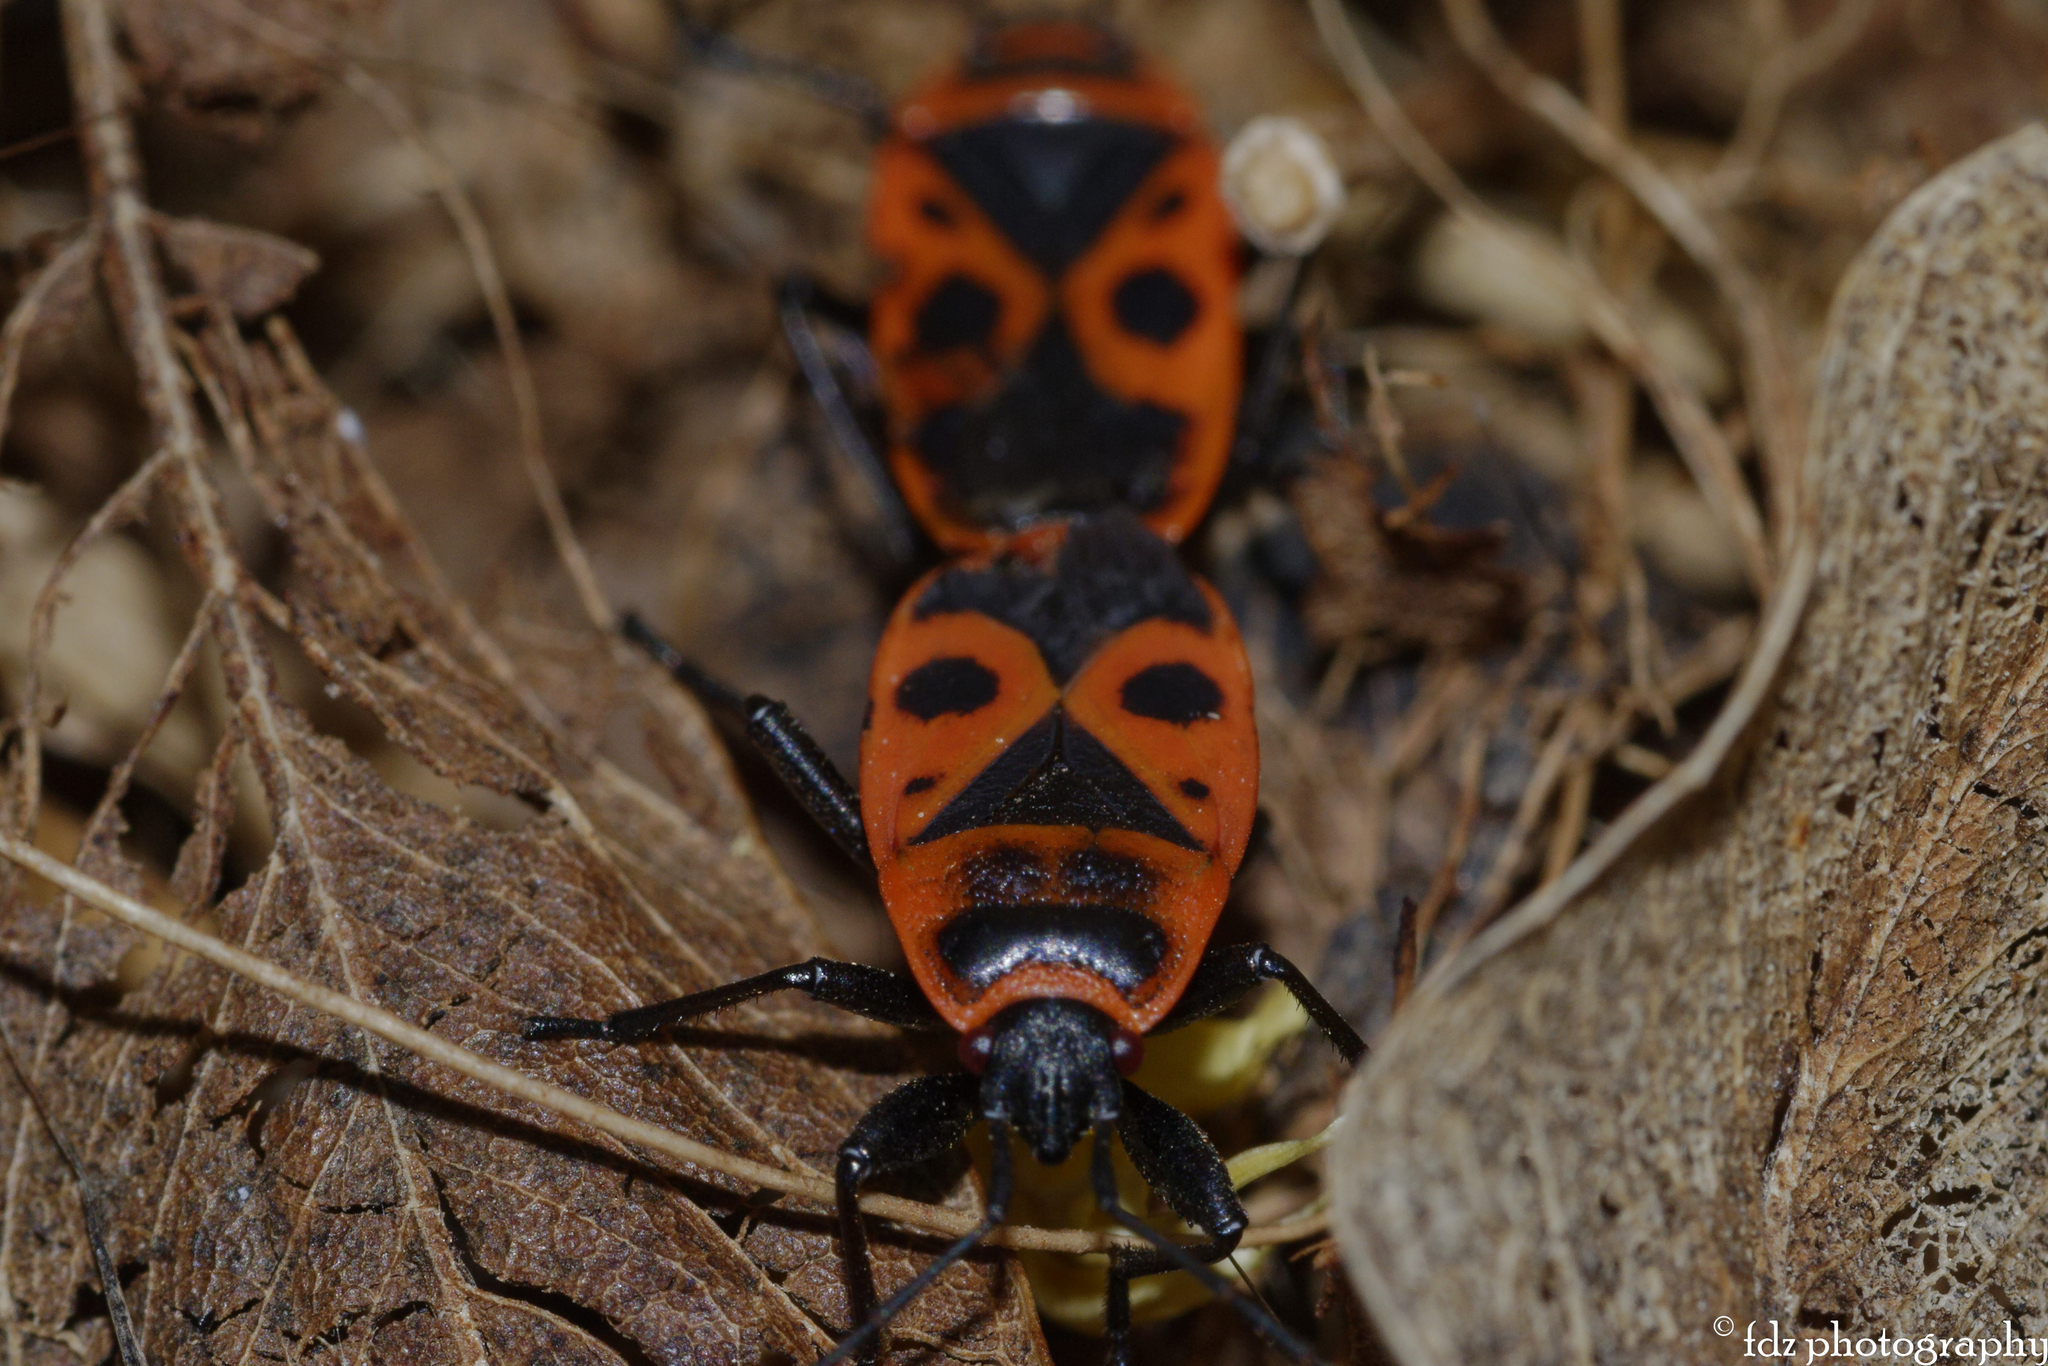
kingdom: Animalia
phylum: Arthropoda
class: Insecta
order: Hemiptera
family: Pyrrhocoridae
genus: Pyrrhocoris
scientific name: Pyrrhocoris apterus
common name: Firebug
